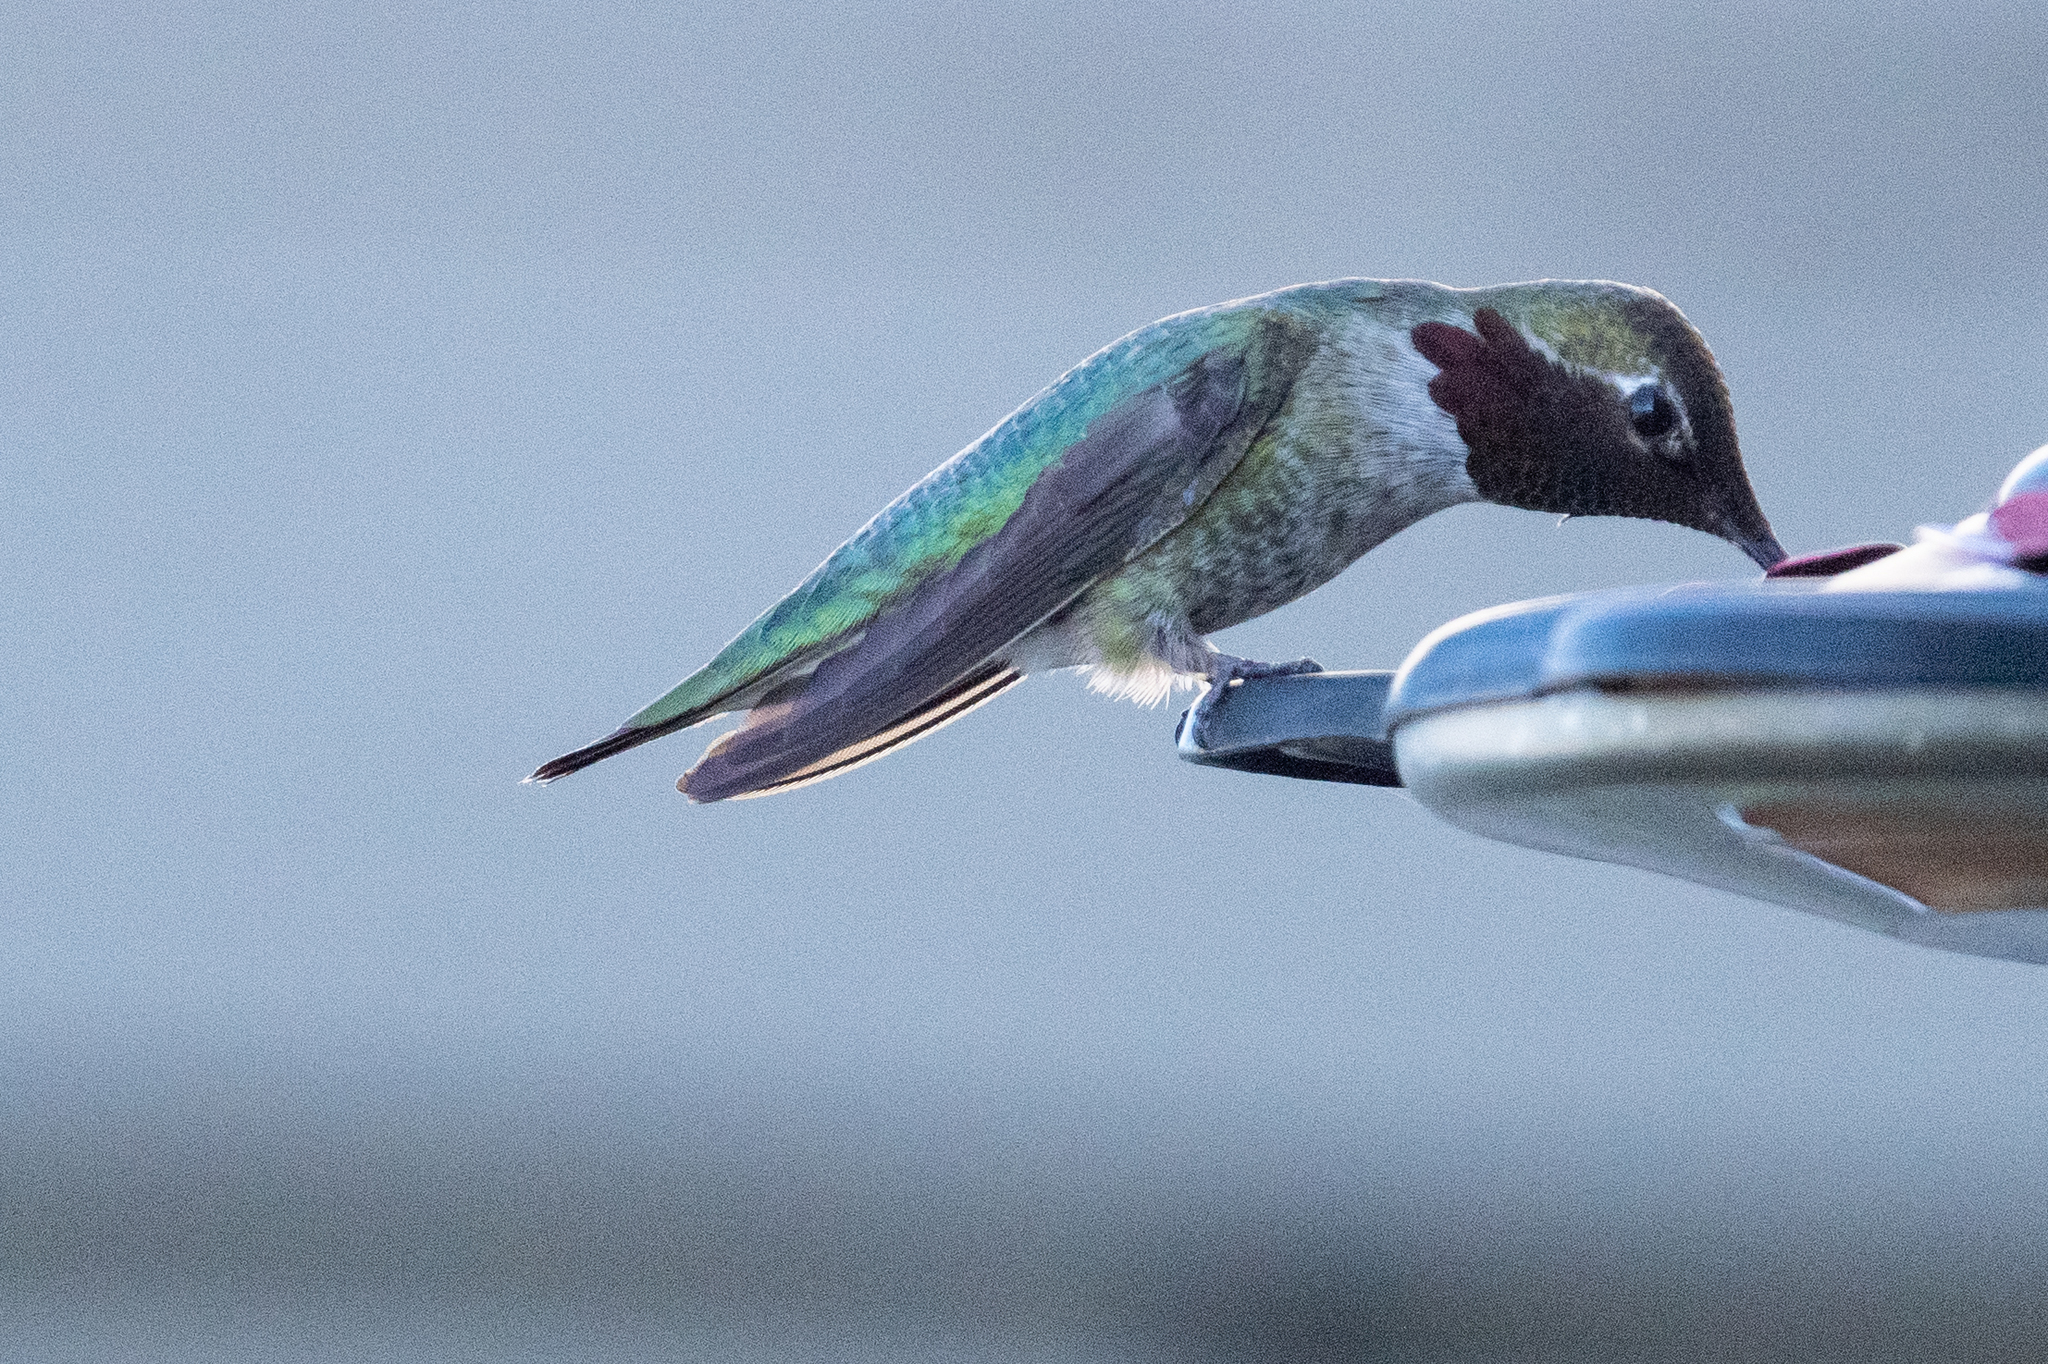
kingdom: Animalia
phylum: Chordata
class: Aves
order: Apodiformes
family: Trochilidae
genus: Calypte
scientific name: Calypte anna
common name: Anna's hummingbird
